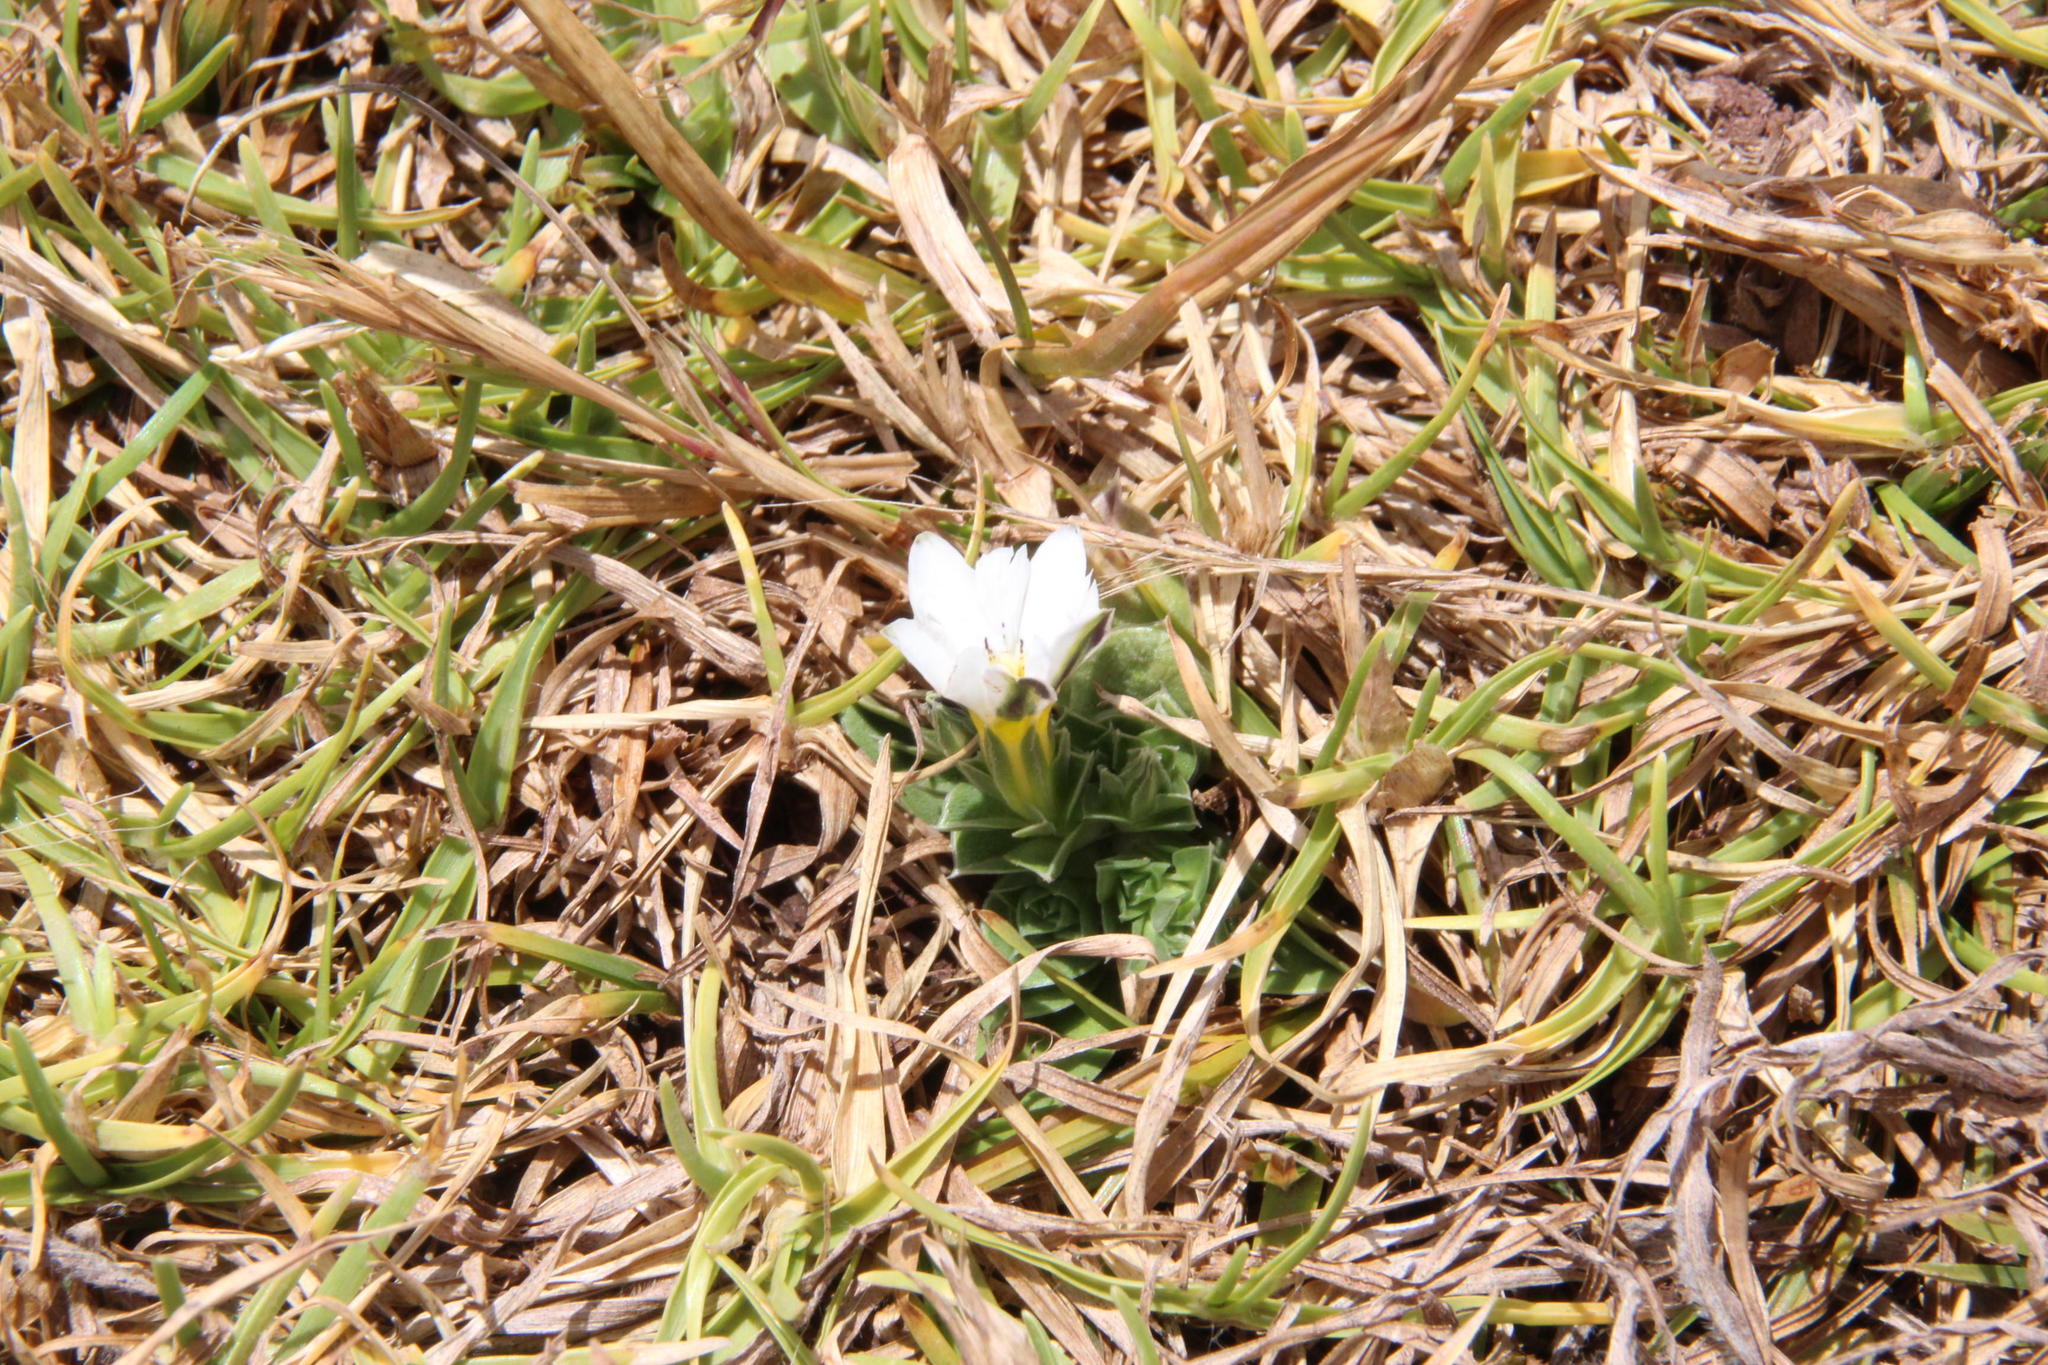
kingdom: Plantae
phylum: Tracheophyta
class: Magnoliopsida
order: Gentianales
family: Gentianaceae
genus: Gentiana
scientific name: Gentiana sedifolia
